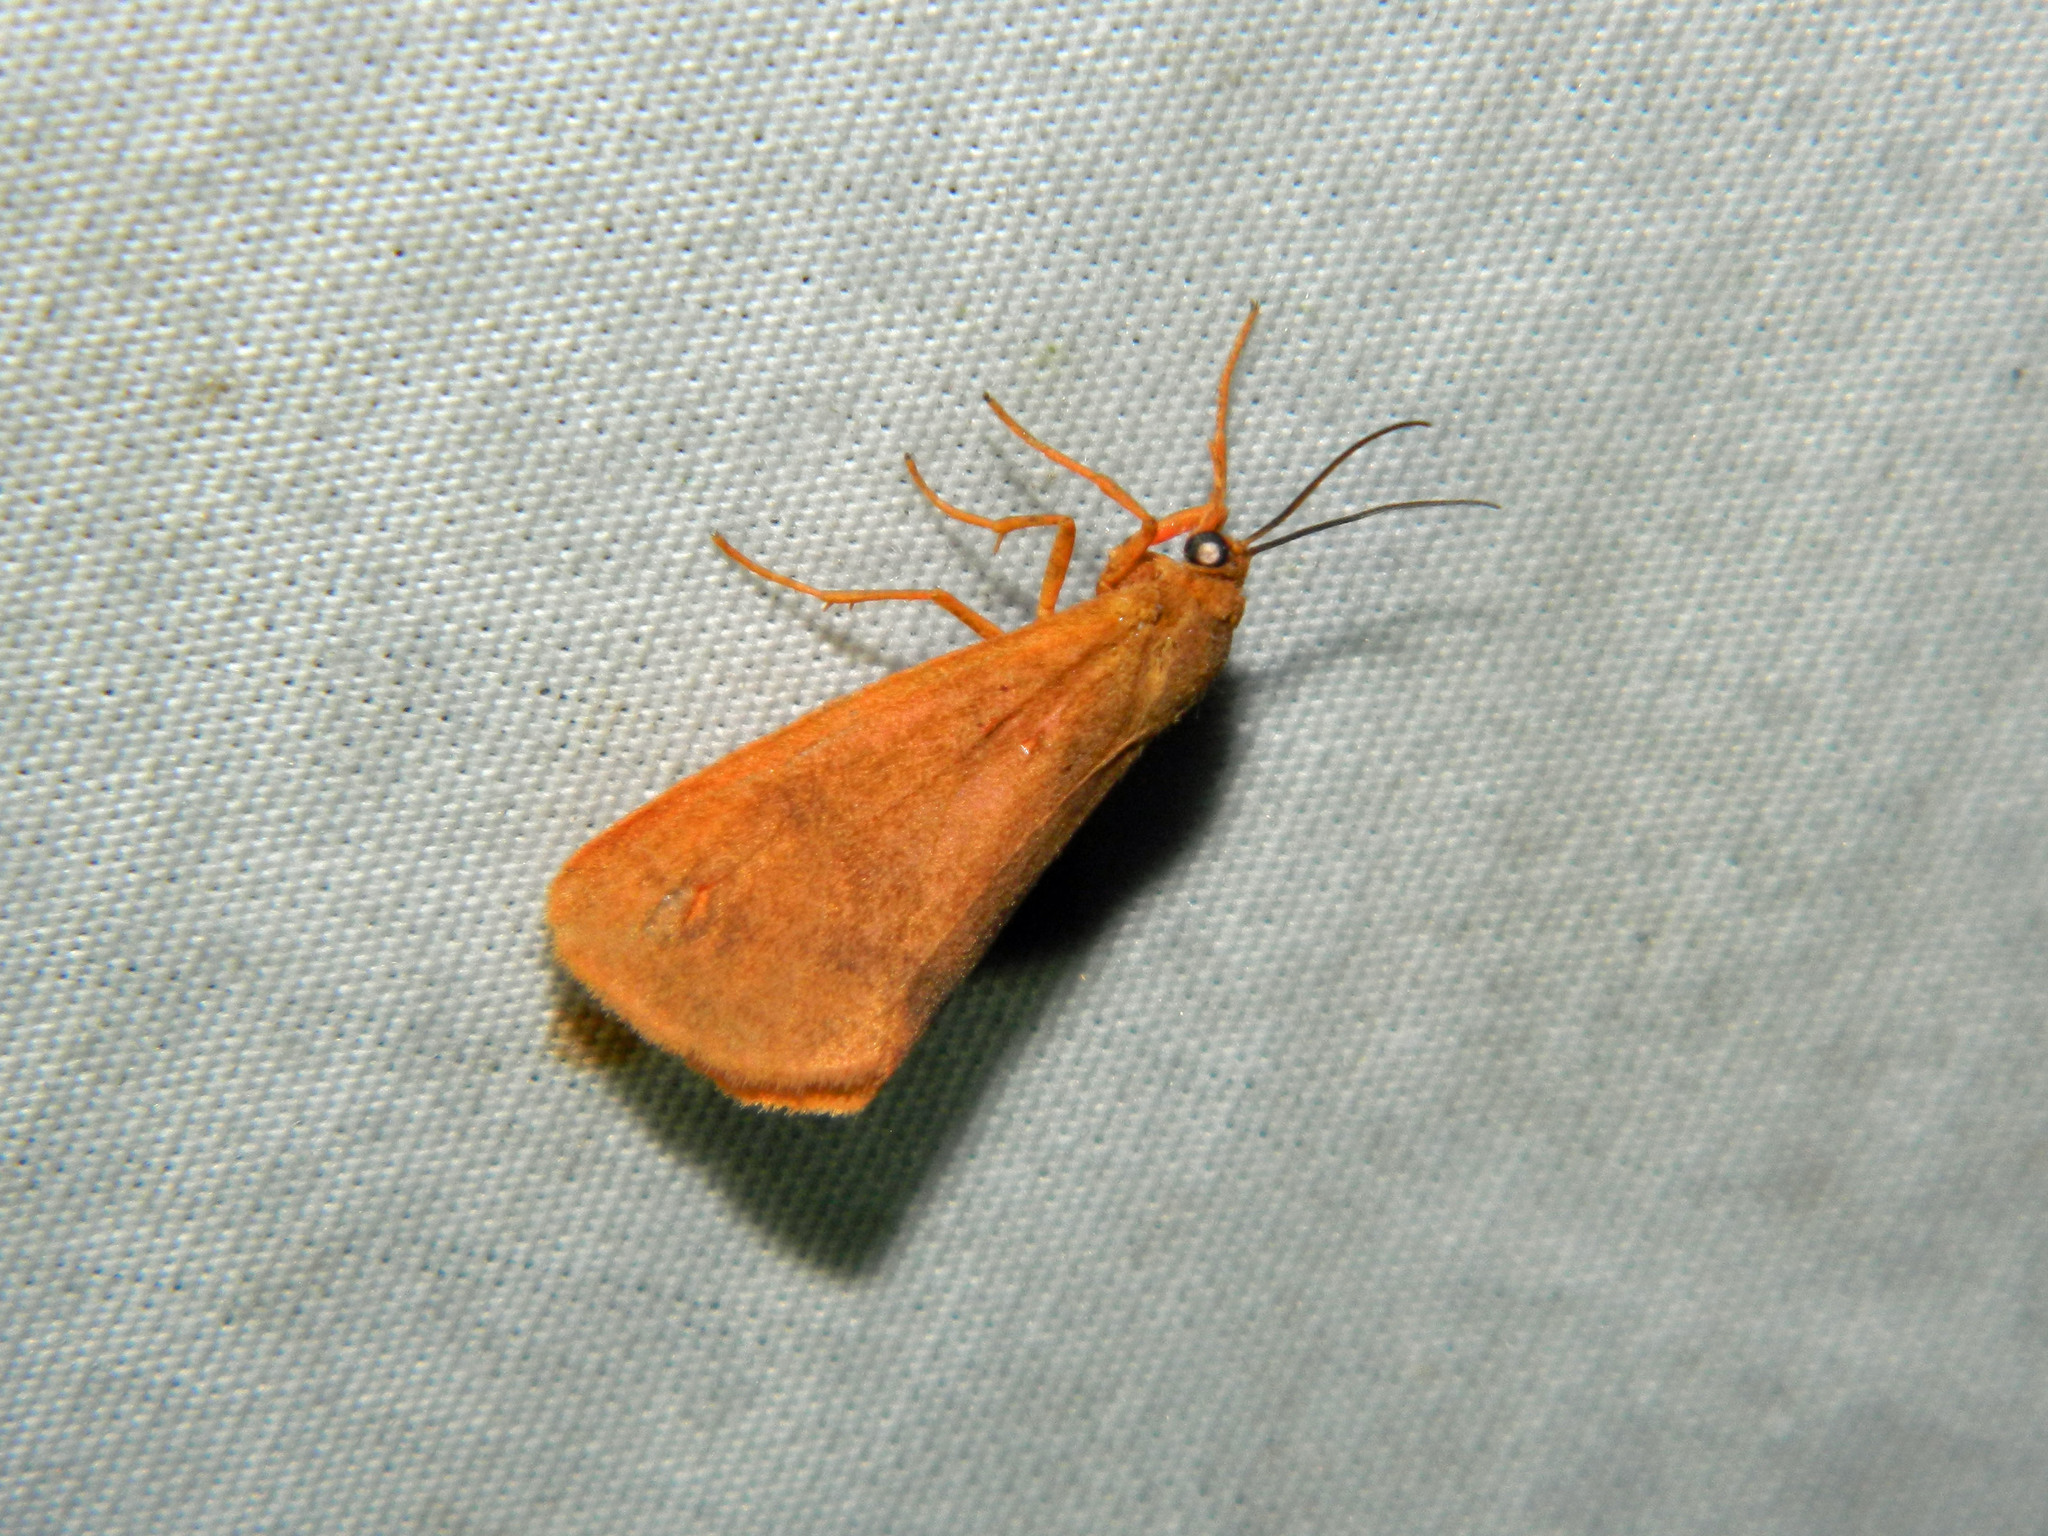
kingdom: Animalia
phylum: Arthropoda
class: Insecta
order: Lepidoptera
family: Erebidae
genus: Virbia
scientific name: Virbia ferruginosa
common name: Rusty virbia moth
